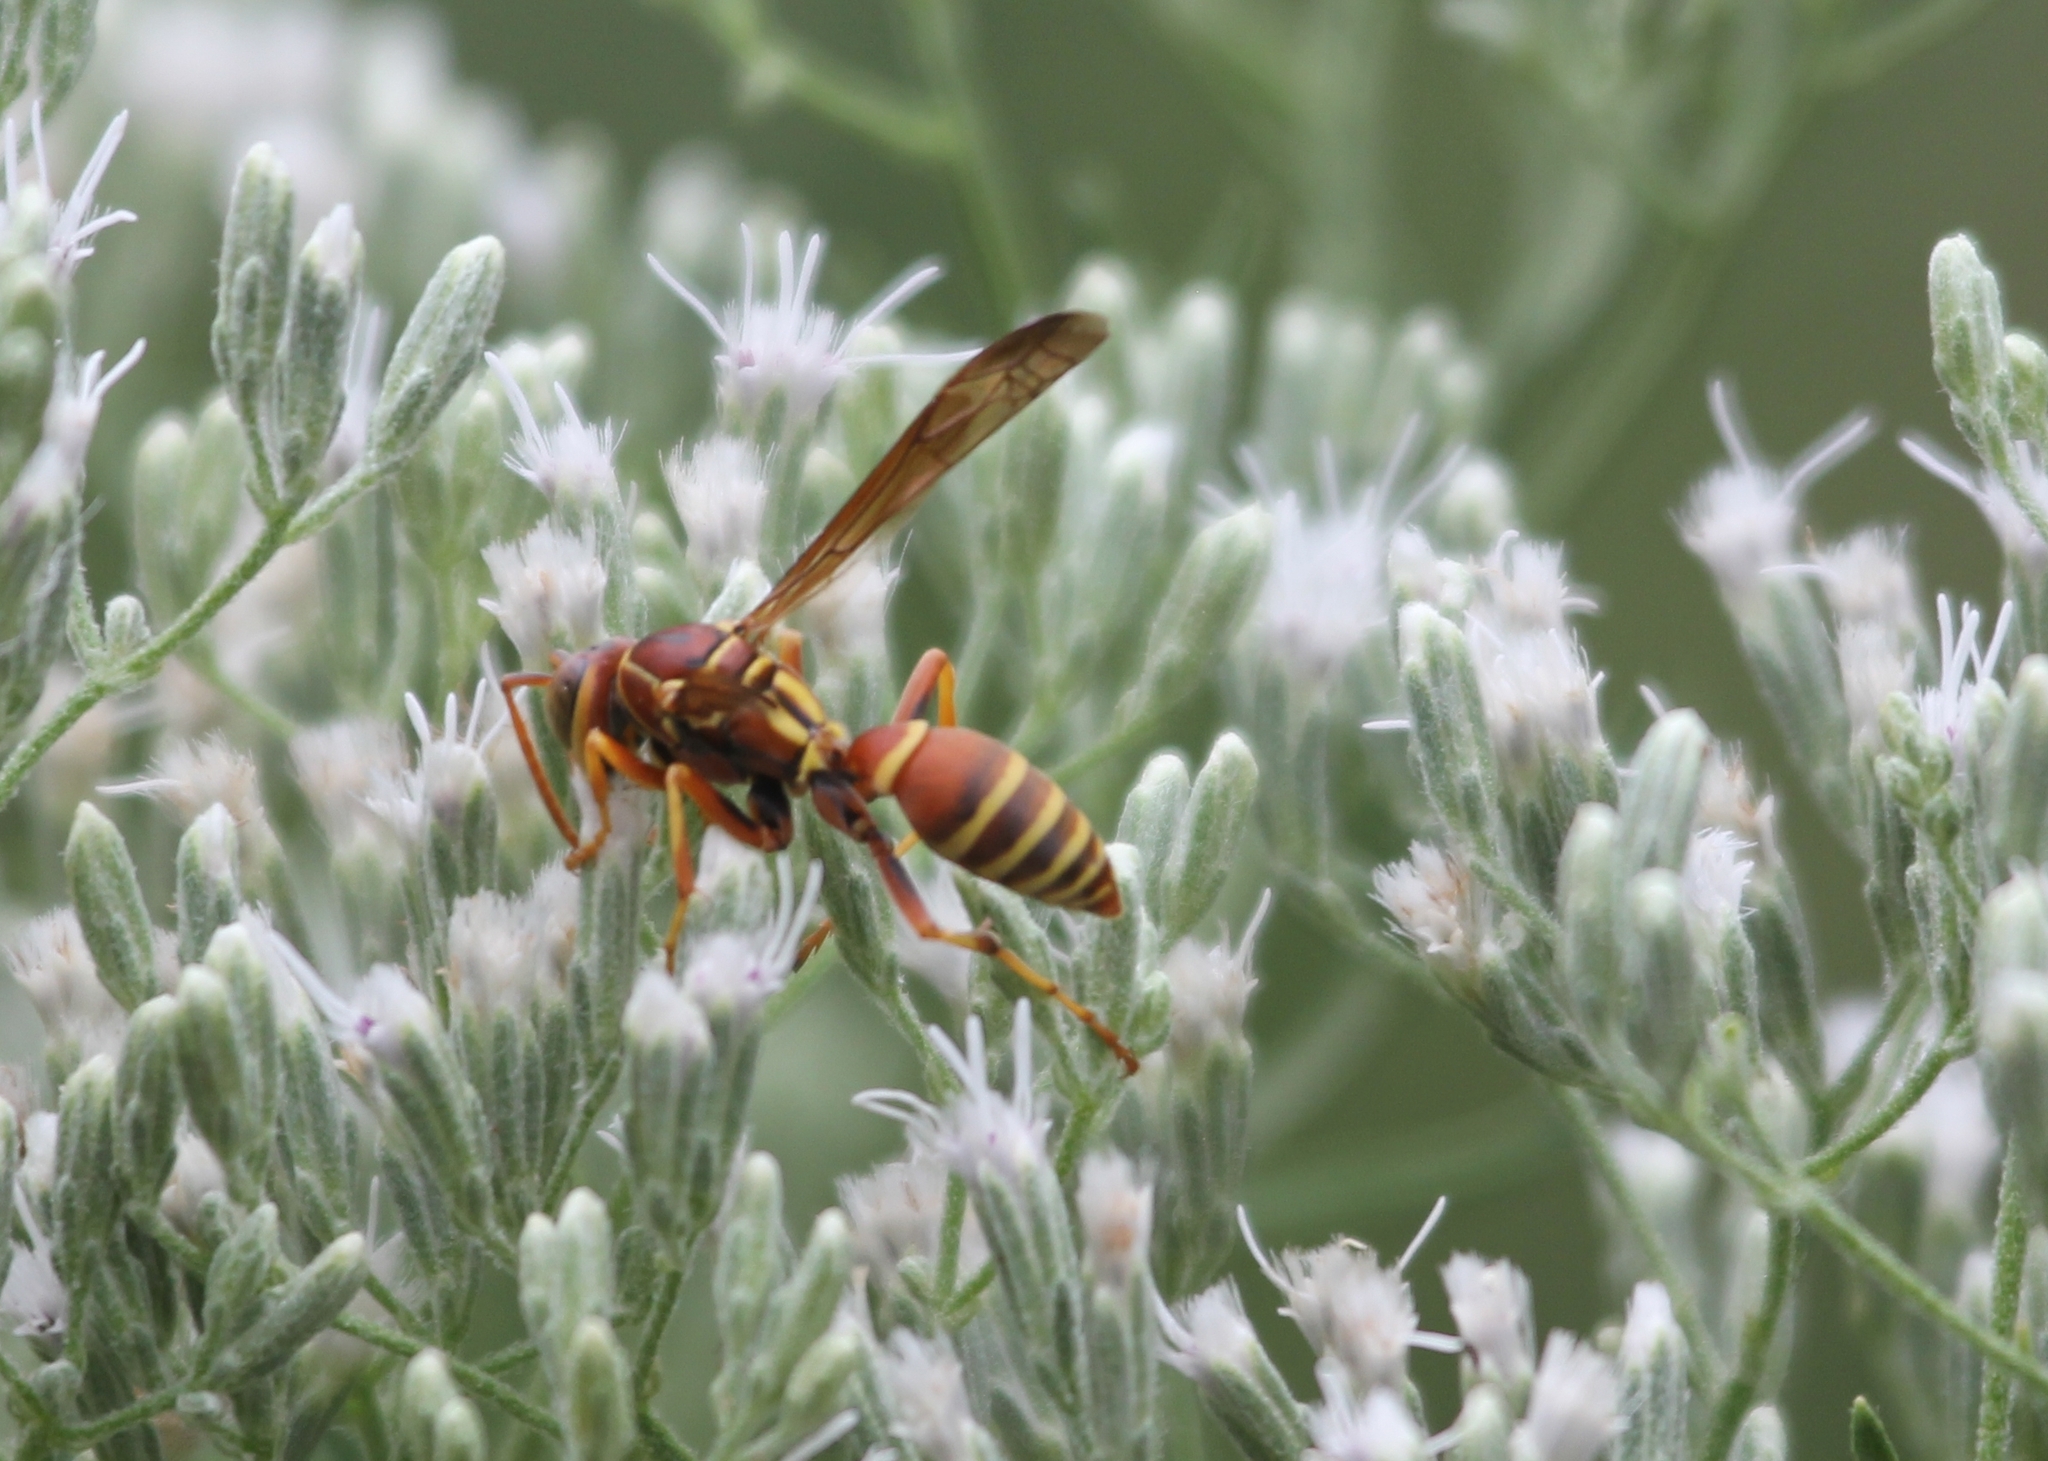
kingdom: Animalia
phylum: Arthropoda
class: Insecta
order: Hymenoptera
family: Eumenidae
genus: Polistes
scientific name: Polistes dorsalis
